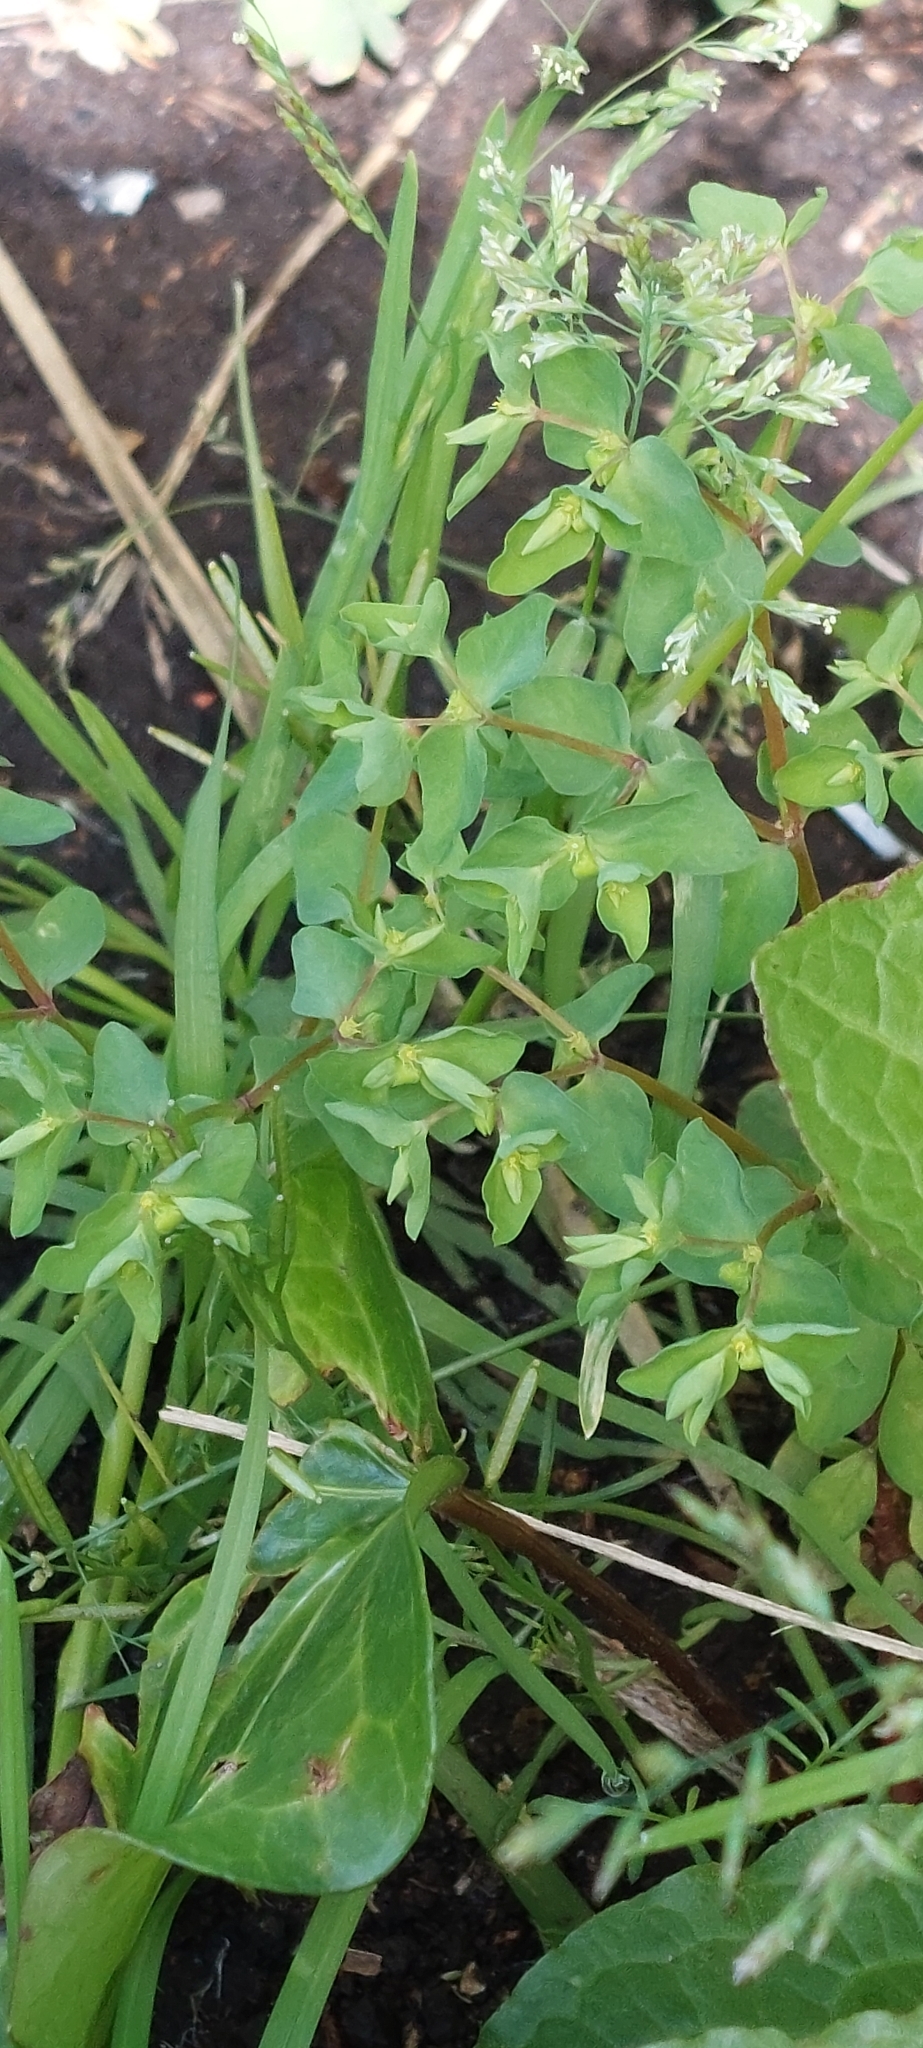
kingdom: Plantae
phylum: Tracheophyta
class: Magnoliopsida
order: Malpighiales
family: Euphorbiaceae
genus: Euphorbia
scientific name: Euphorbia peplus
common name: Petty spurge
